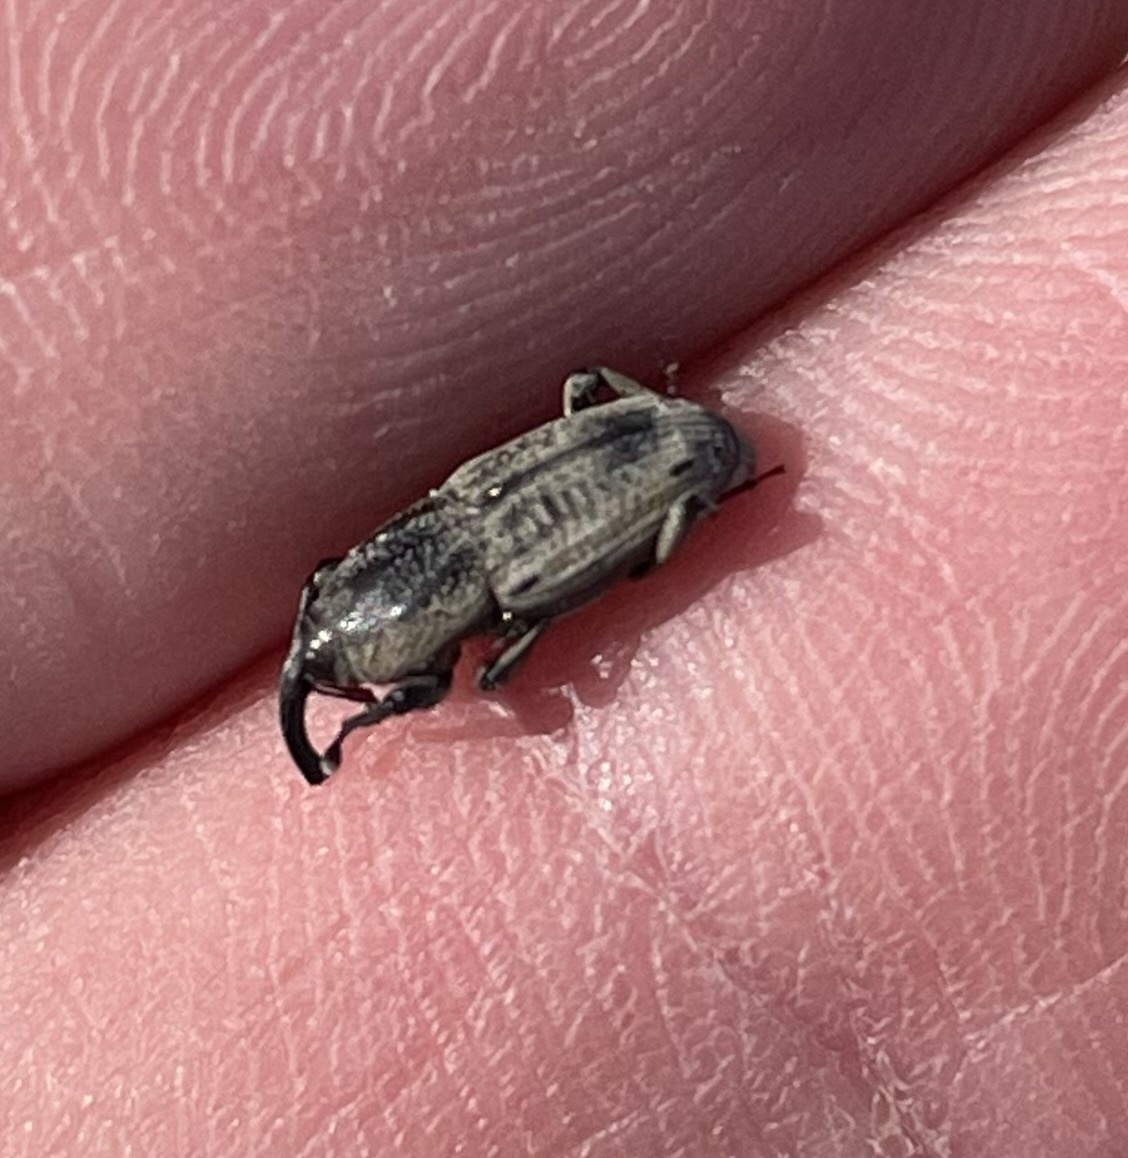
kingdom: Animalia
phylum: Arthropoda
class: Insecta
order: Coleoptera
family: Dryophthoridae
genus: Sphenophorus
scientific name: Sphenophorus venatus
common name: Hunting billbug
